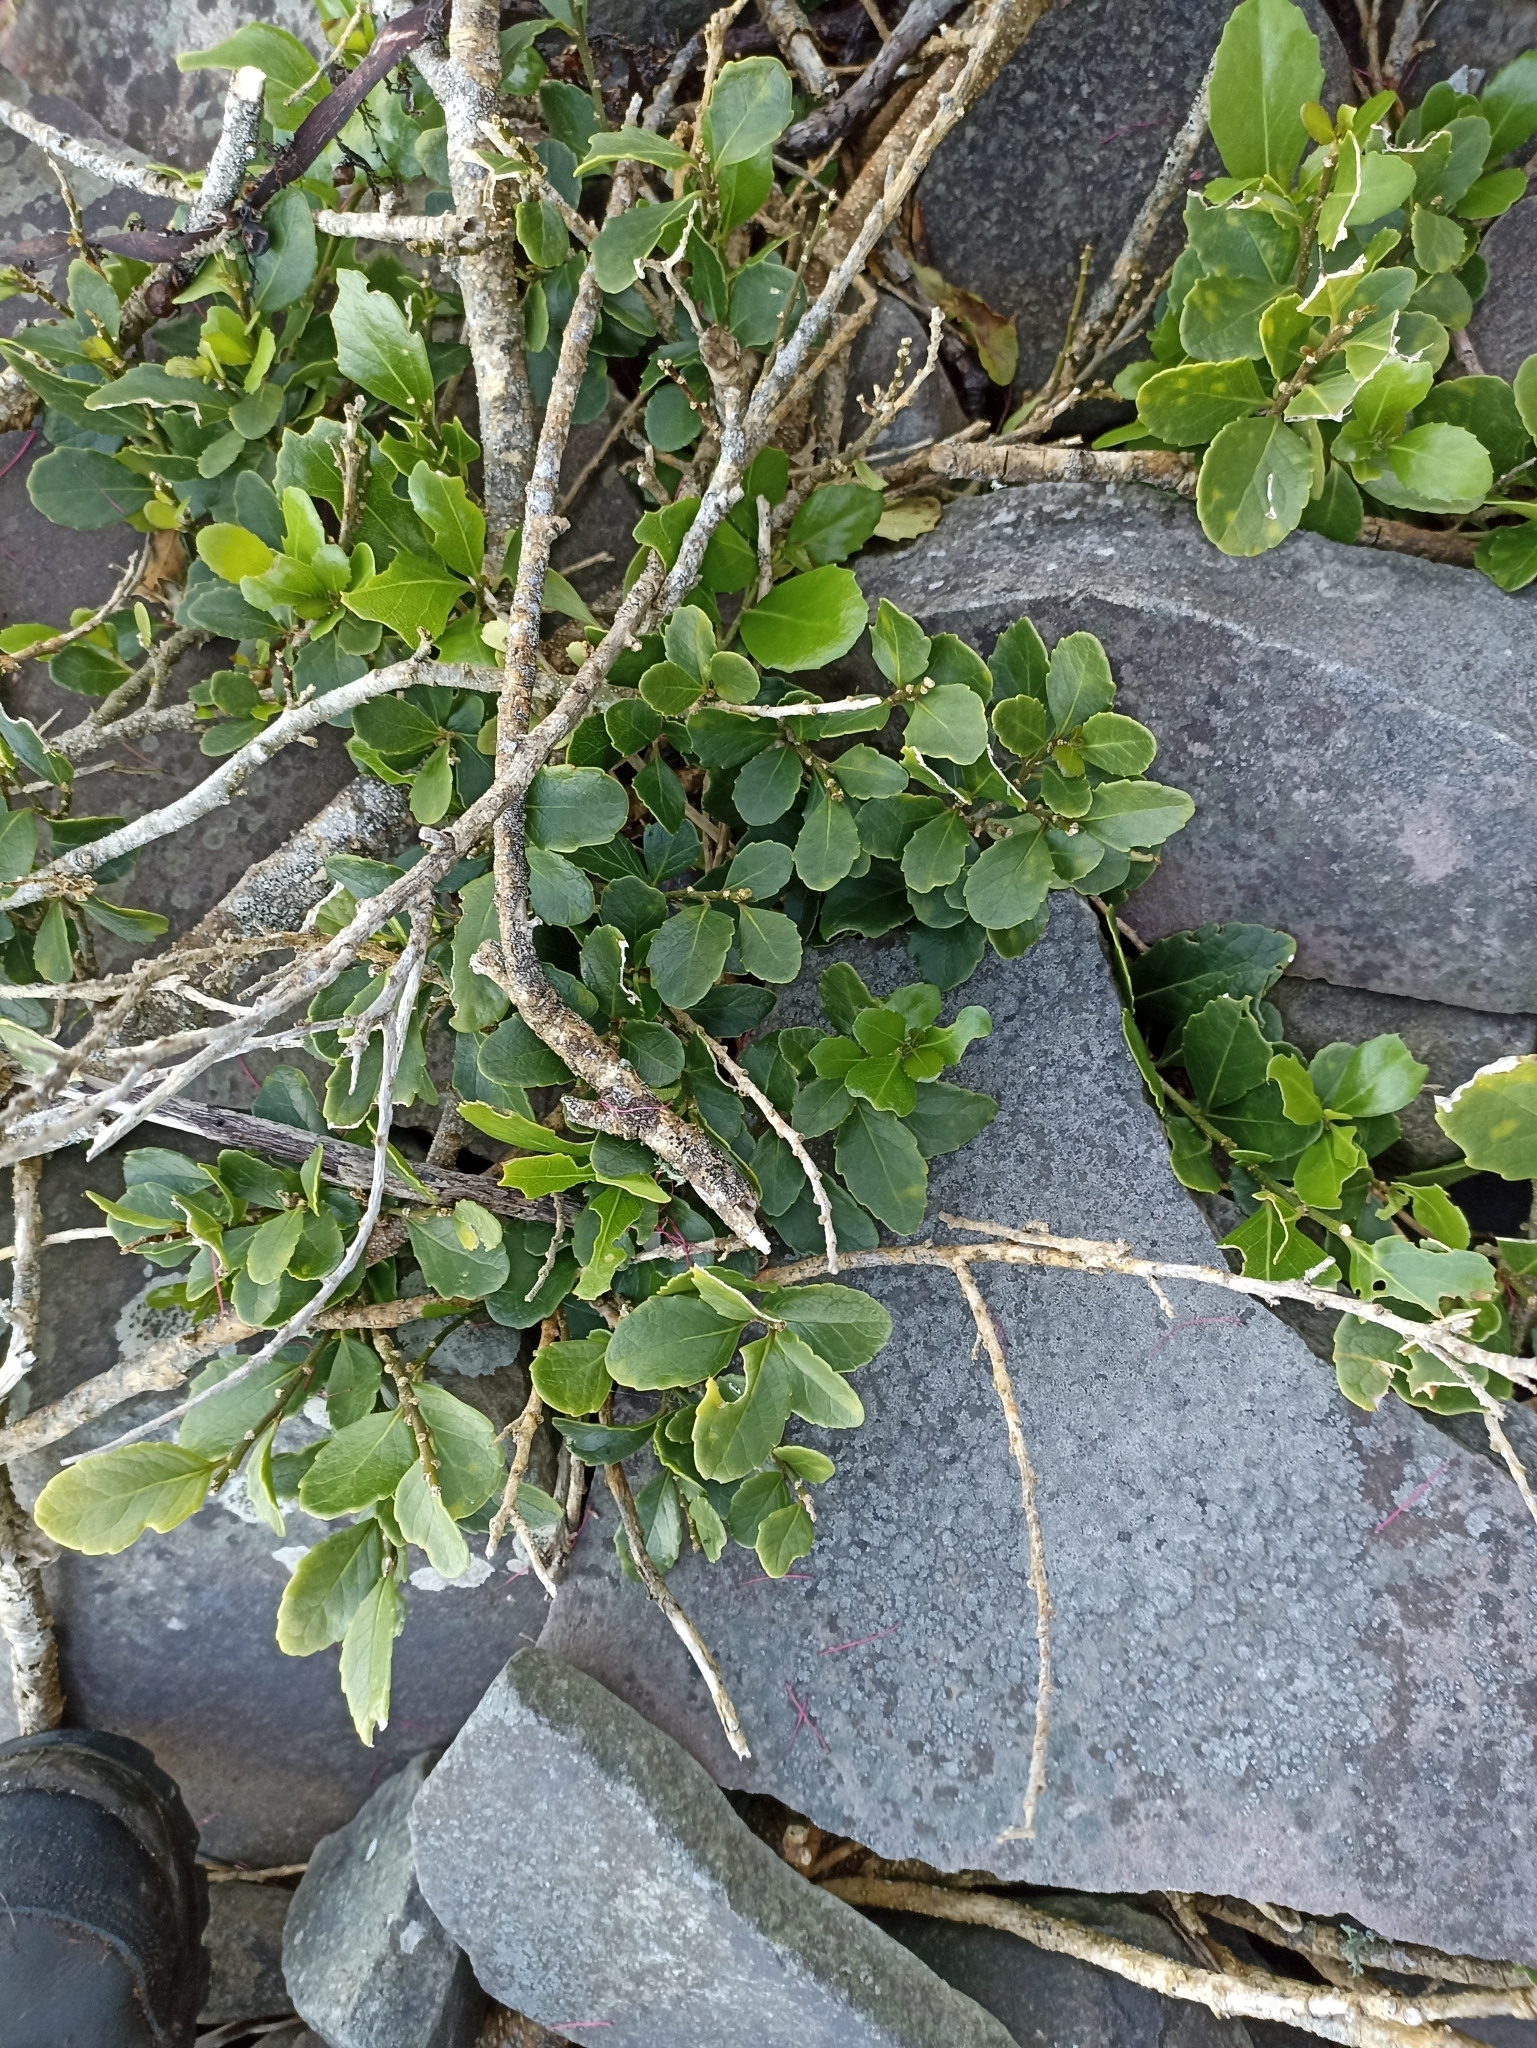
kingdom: Plantae
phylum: Tracheophyta
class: Magnoliopsida
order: Malpighiales
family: Violaceae
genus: Melicytus
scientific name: Melicytus novae-zelandiae
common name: Coastal mahoe
